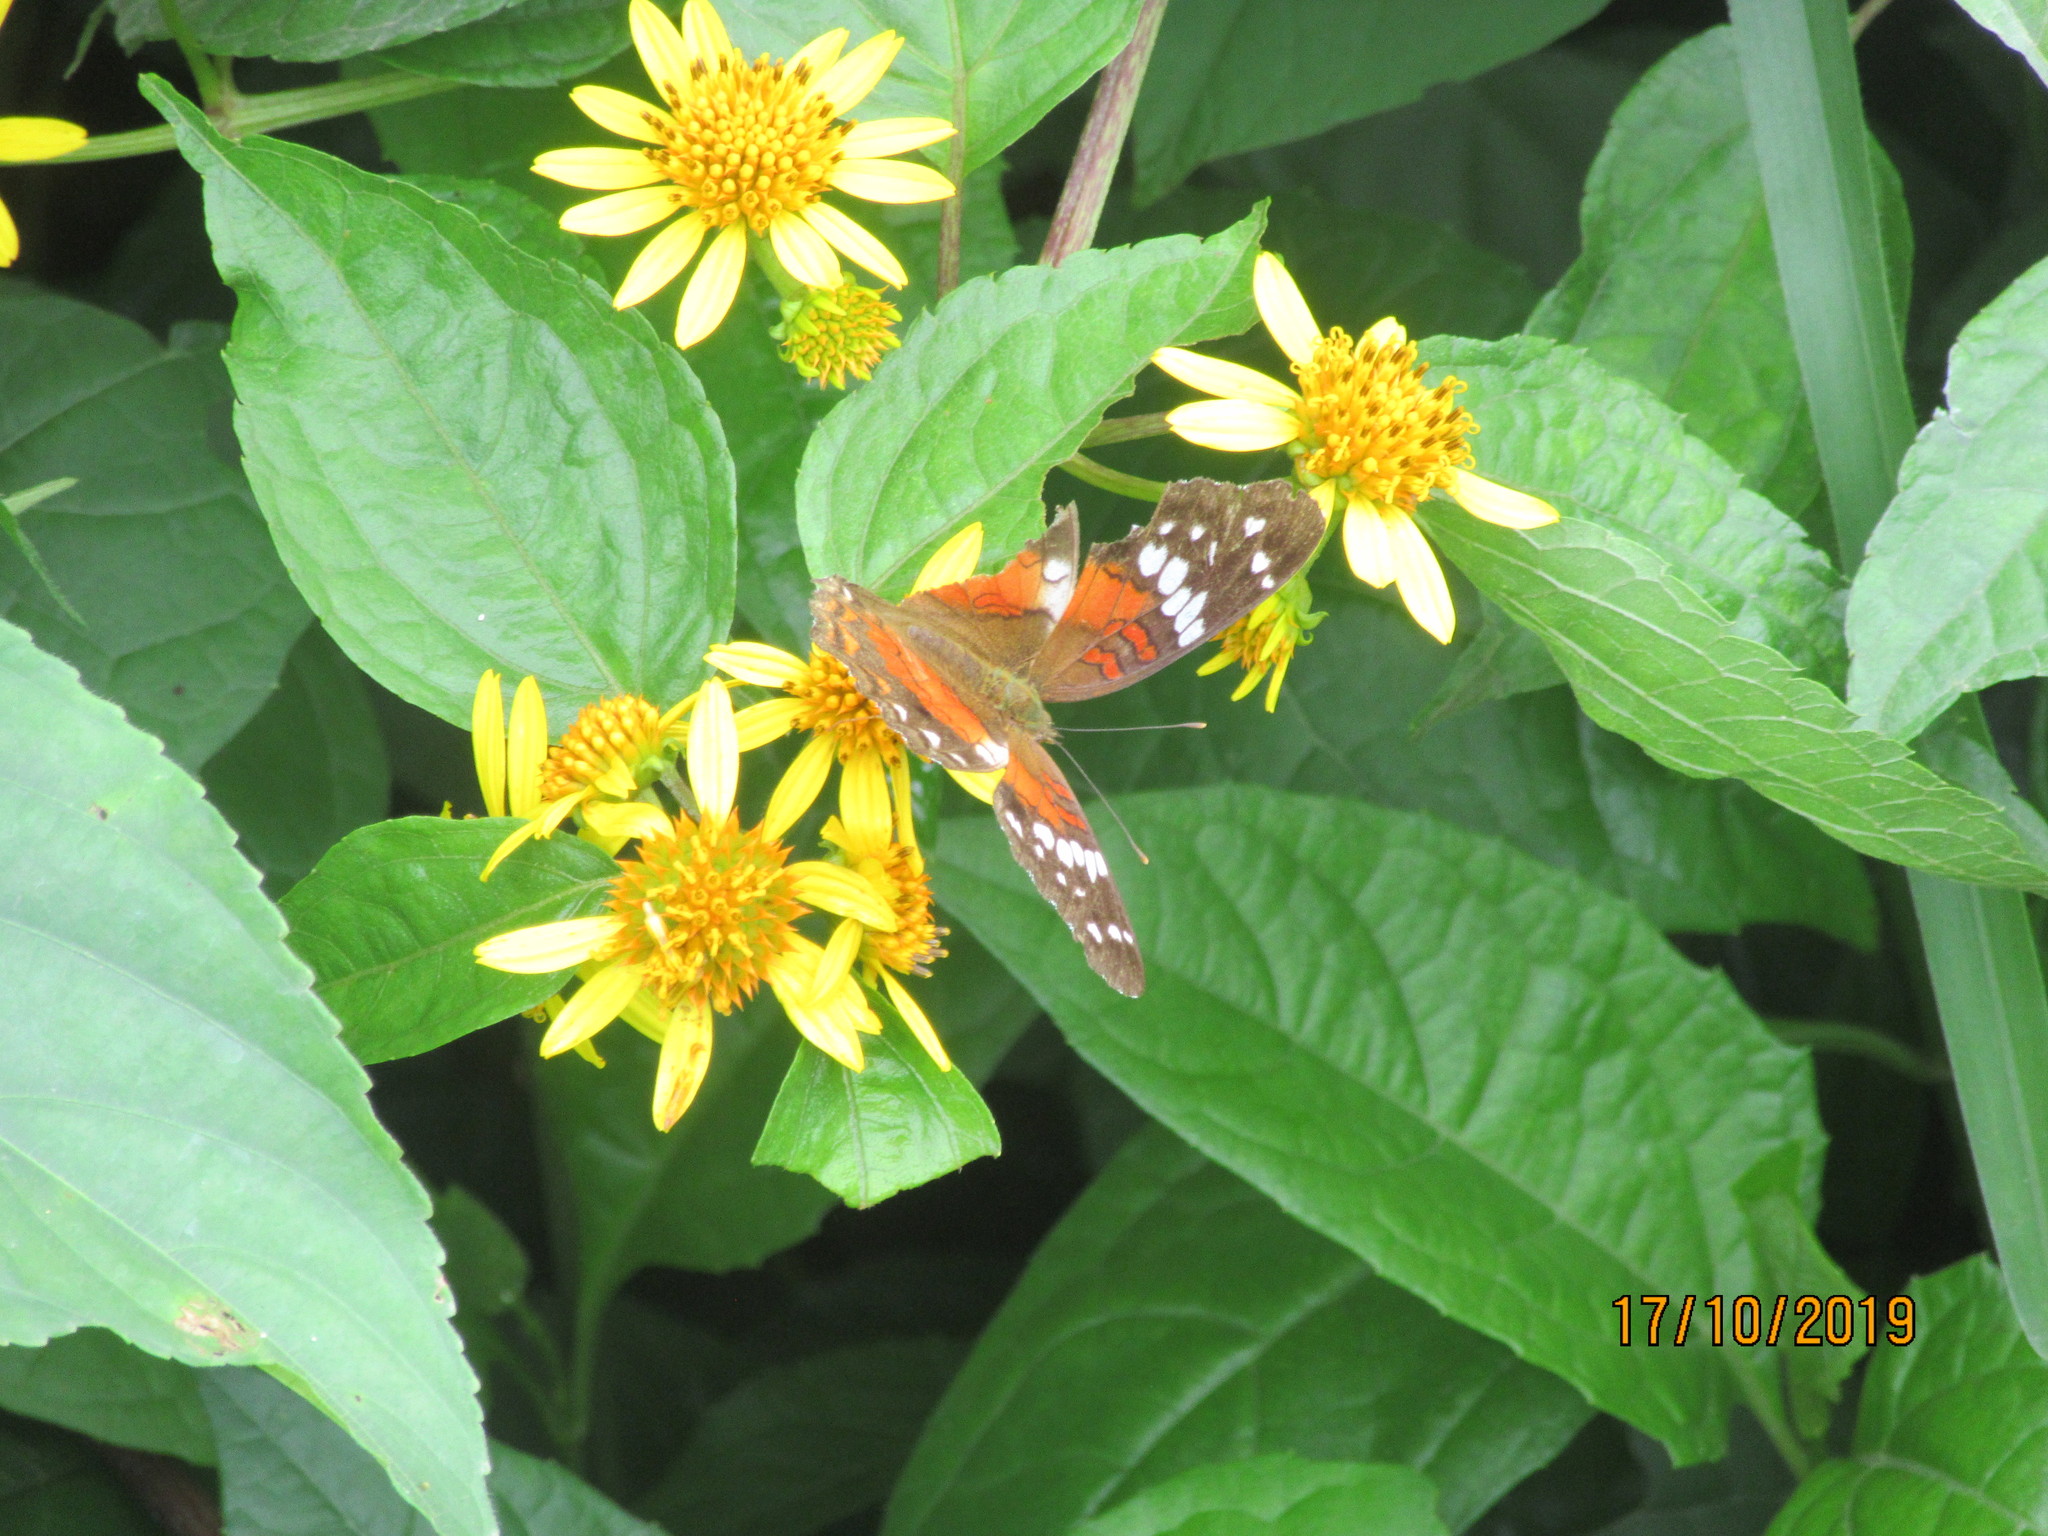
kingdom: Animalia
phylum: Arthropoda
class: Insecta
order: Lepidoptera
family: Nymphalidae
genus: Anartia
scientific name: Anartia amathea
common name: Red peacock
